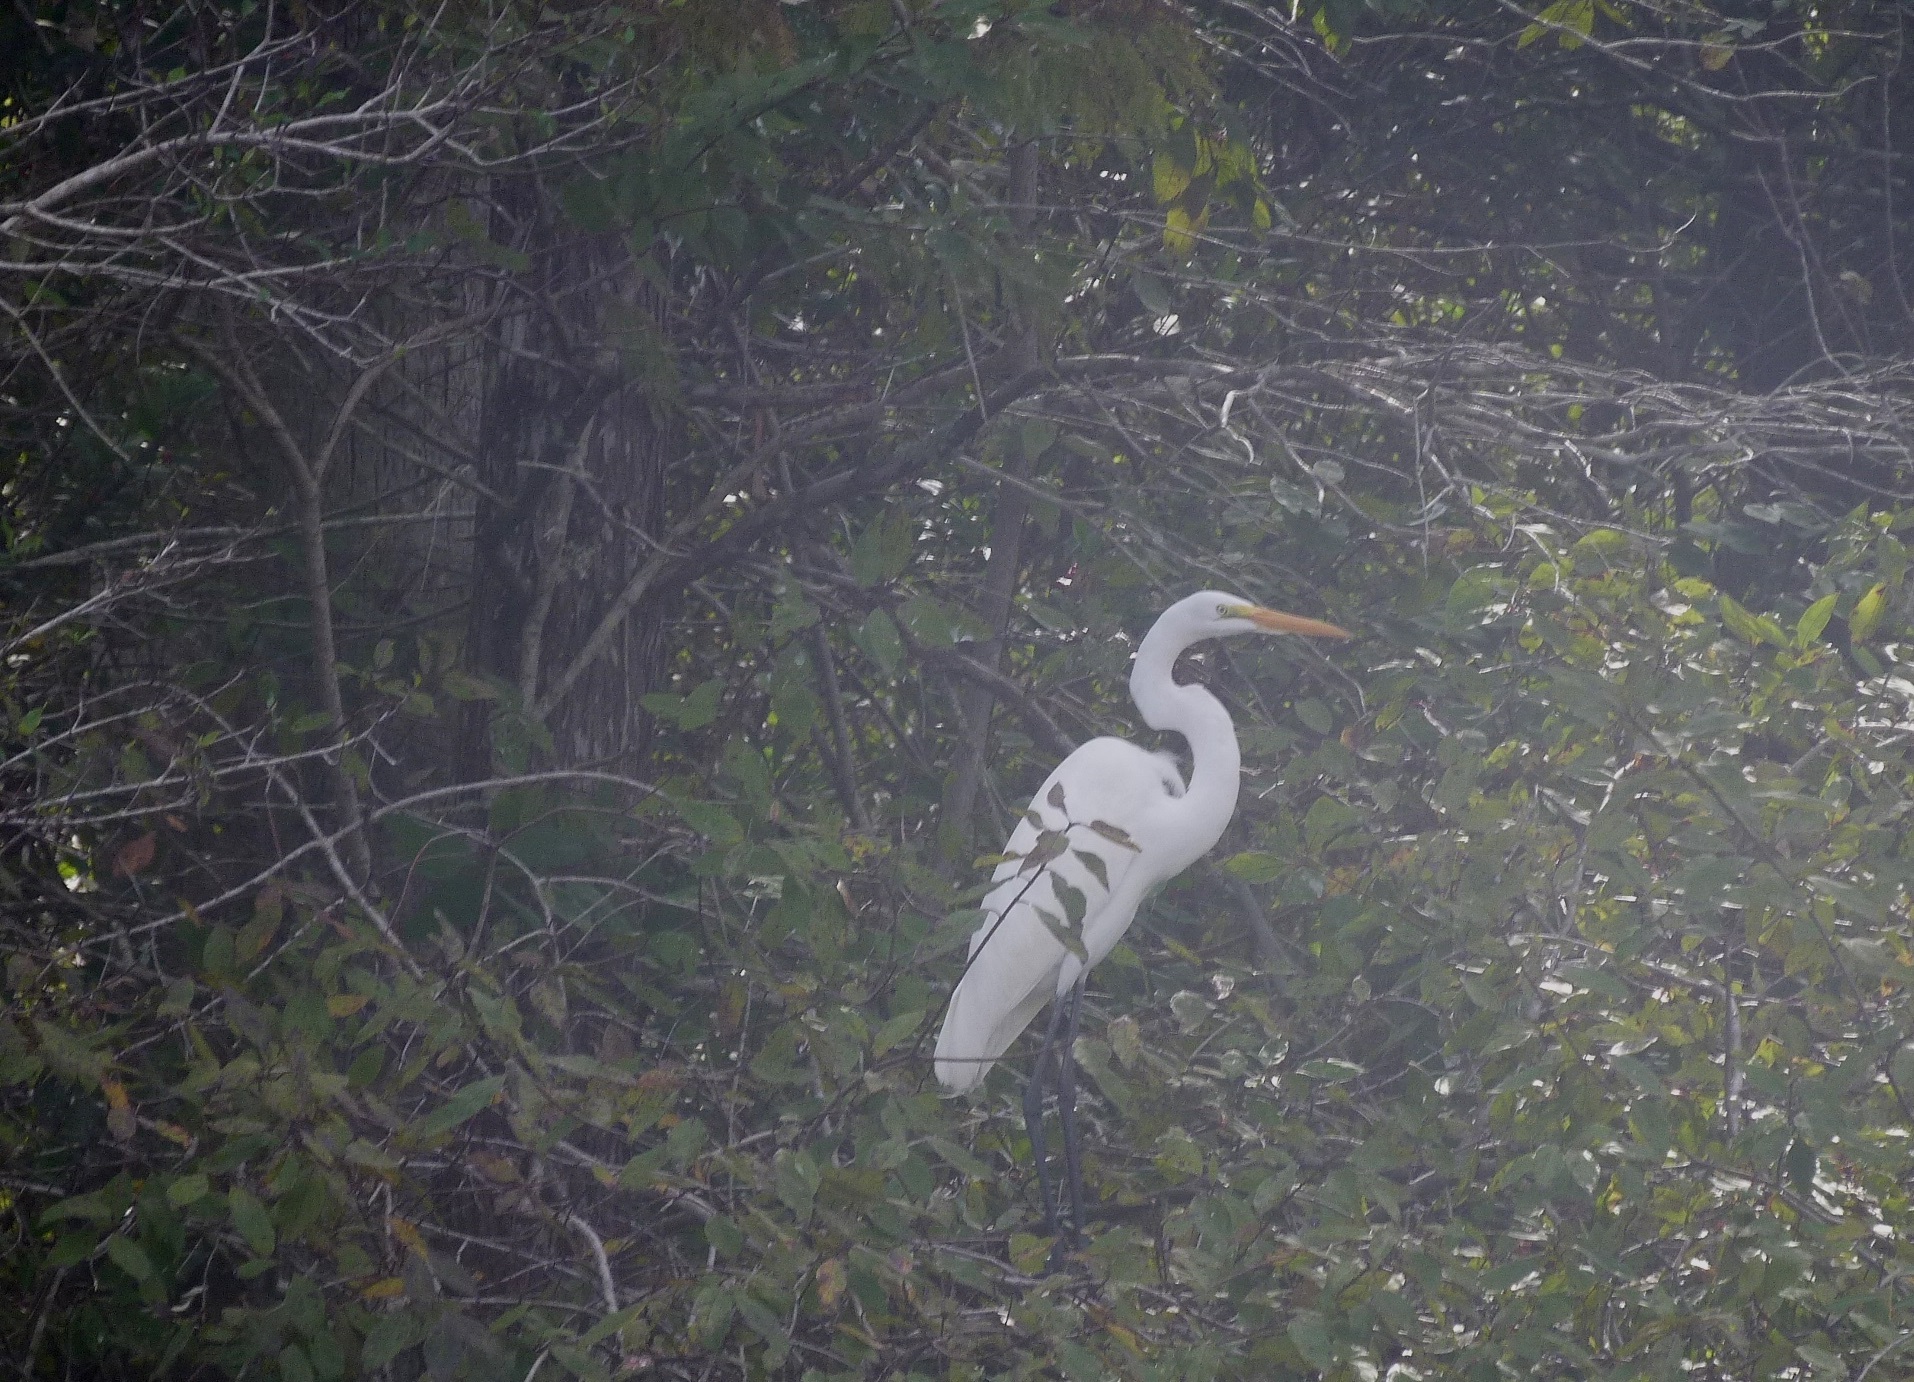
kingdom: Animalia
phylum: Chordata
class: Aves
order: Pelecaniformes
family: Ardeidae
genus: Ardea
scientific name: Ardea alba
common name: Great egret
